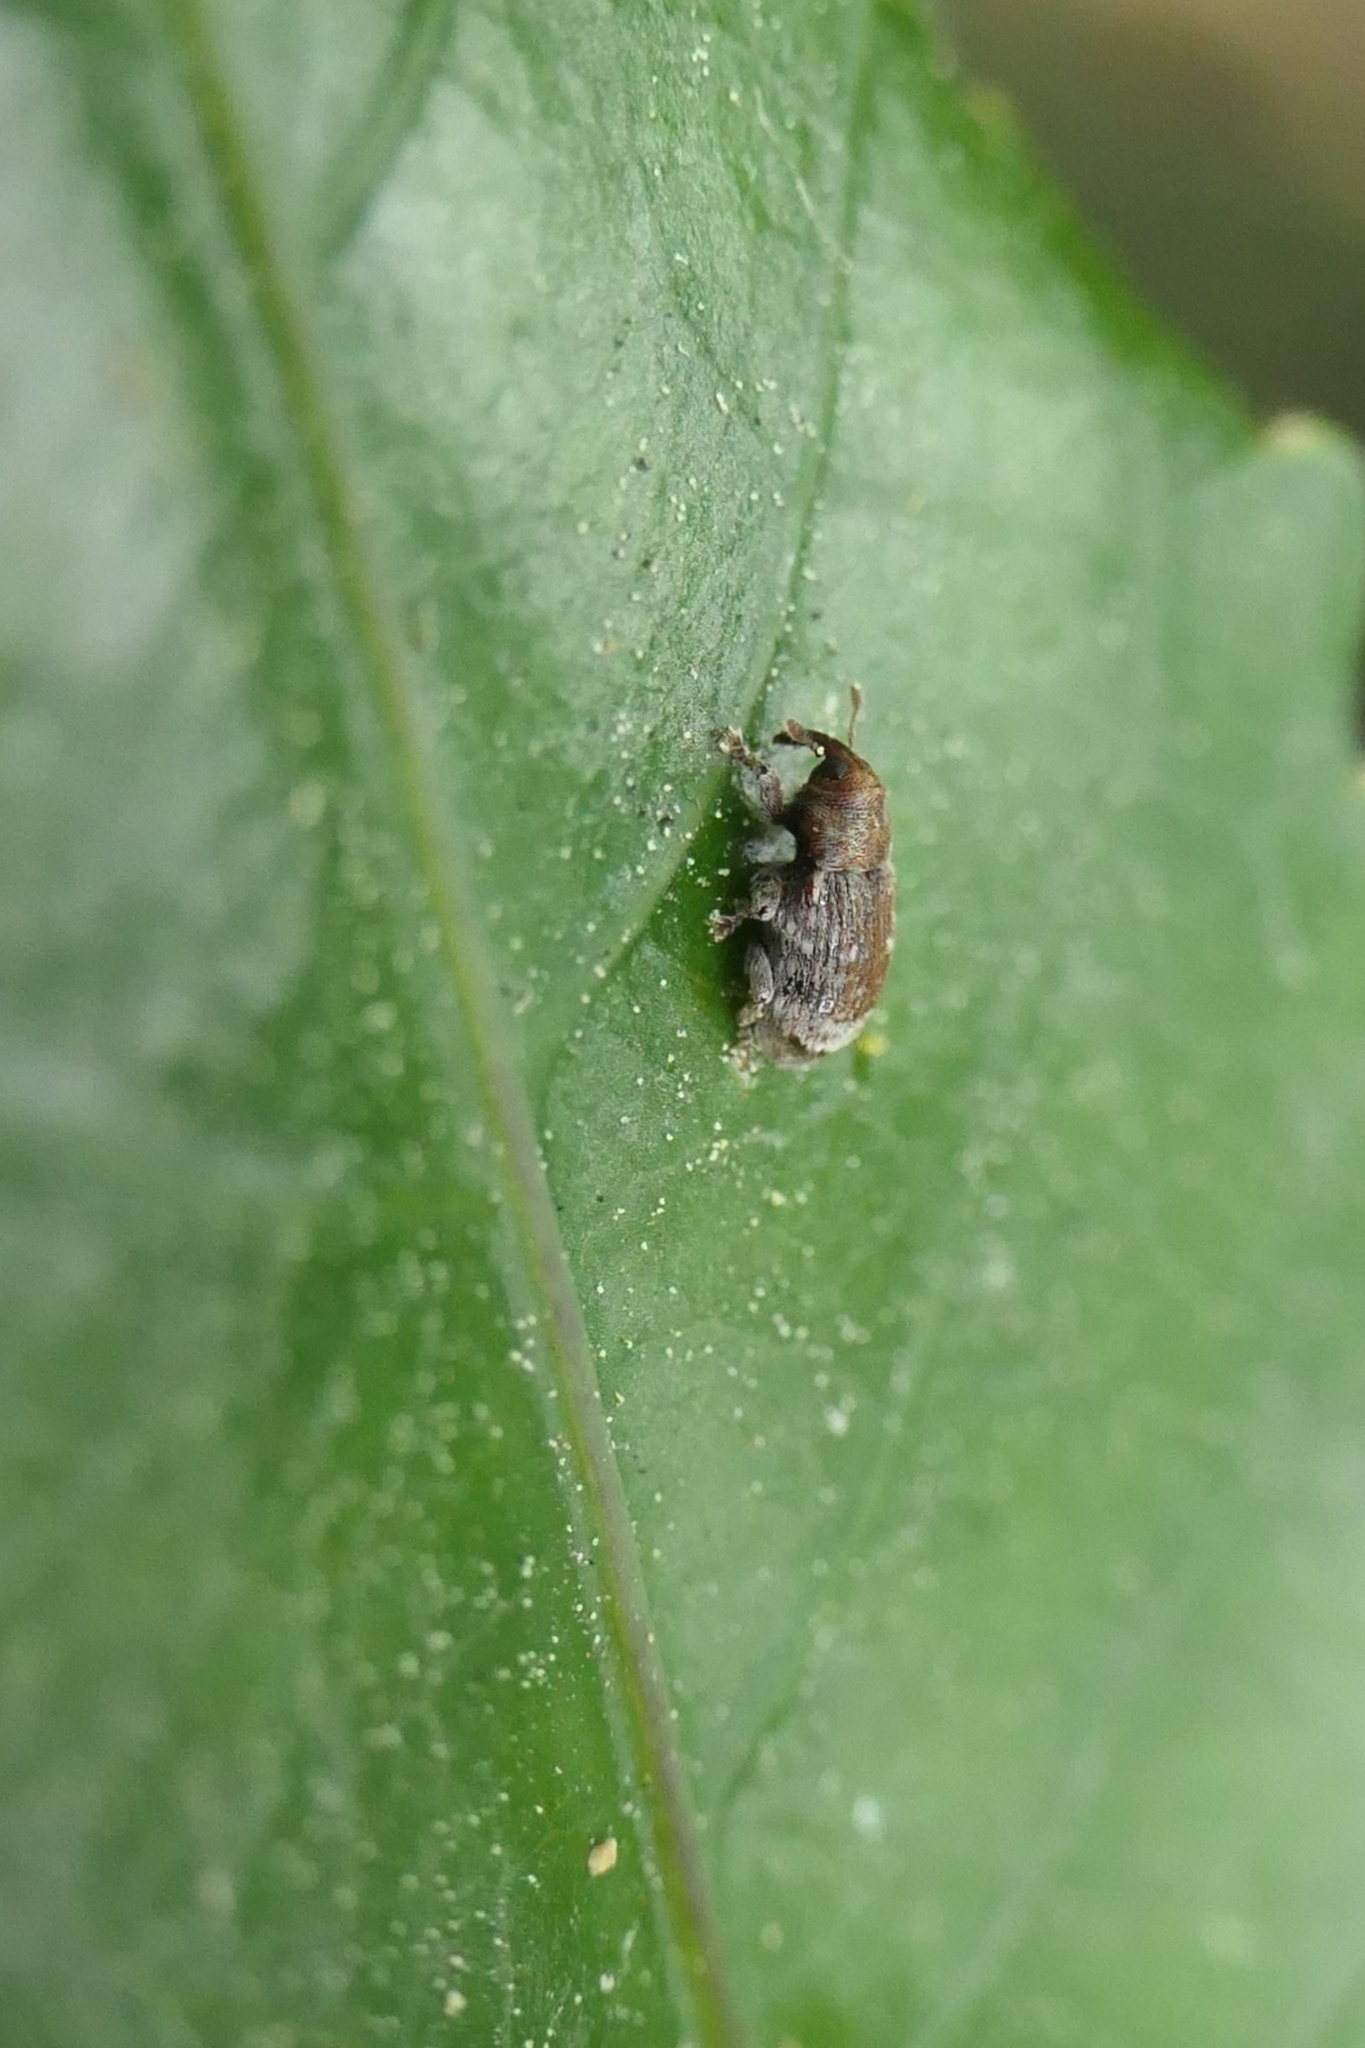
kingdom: Animalia
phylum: Arthropoda
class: Insecta
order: Coleoptera
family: Curculionidae
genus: Aneuma
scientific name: Aneuma fasciatum
